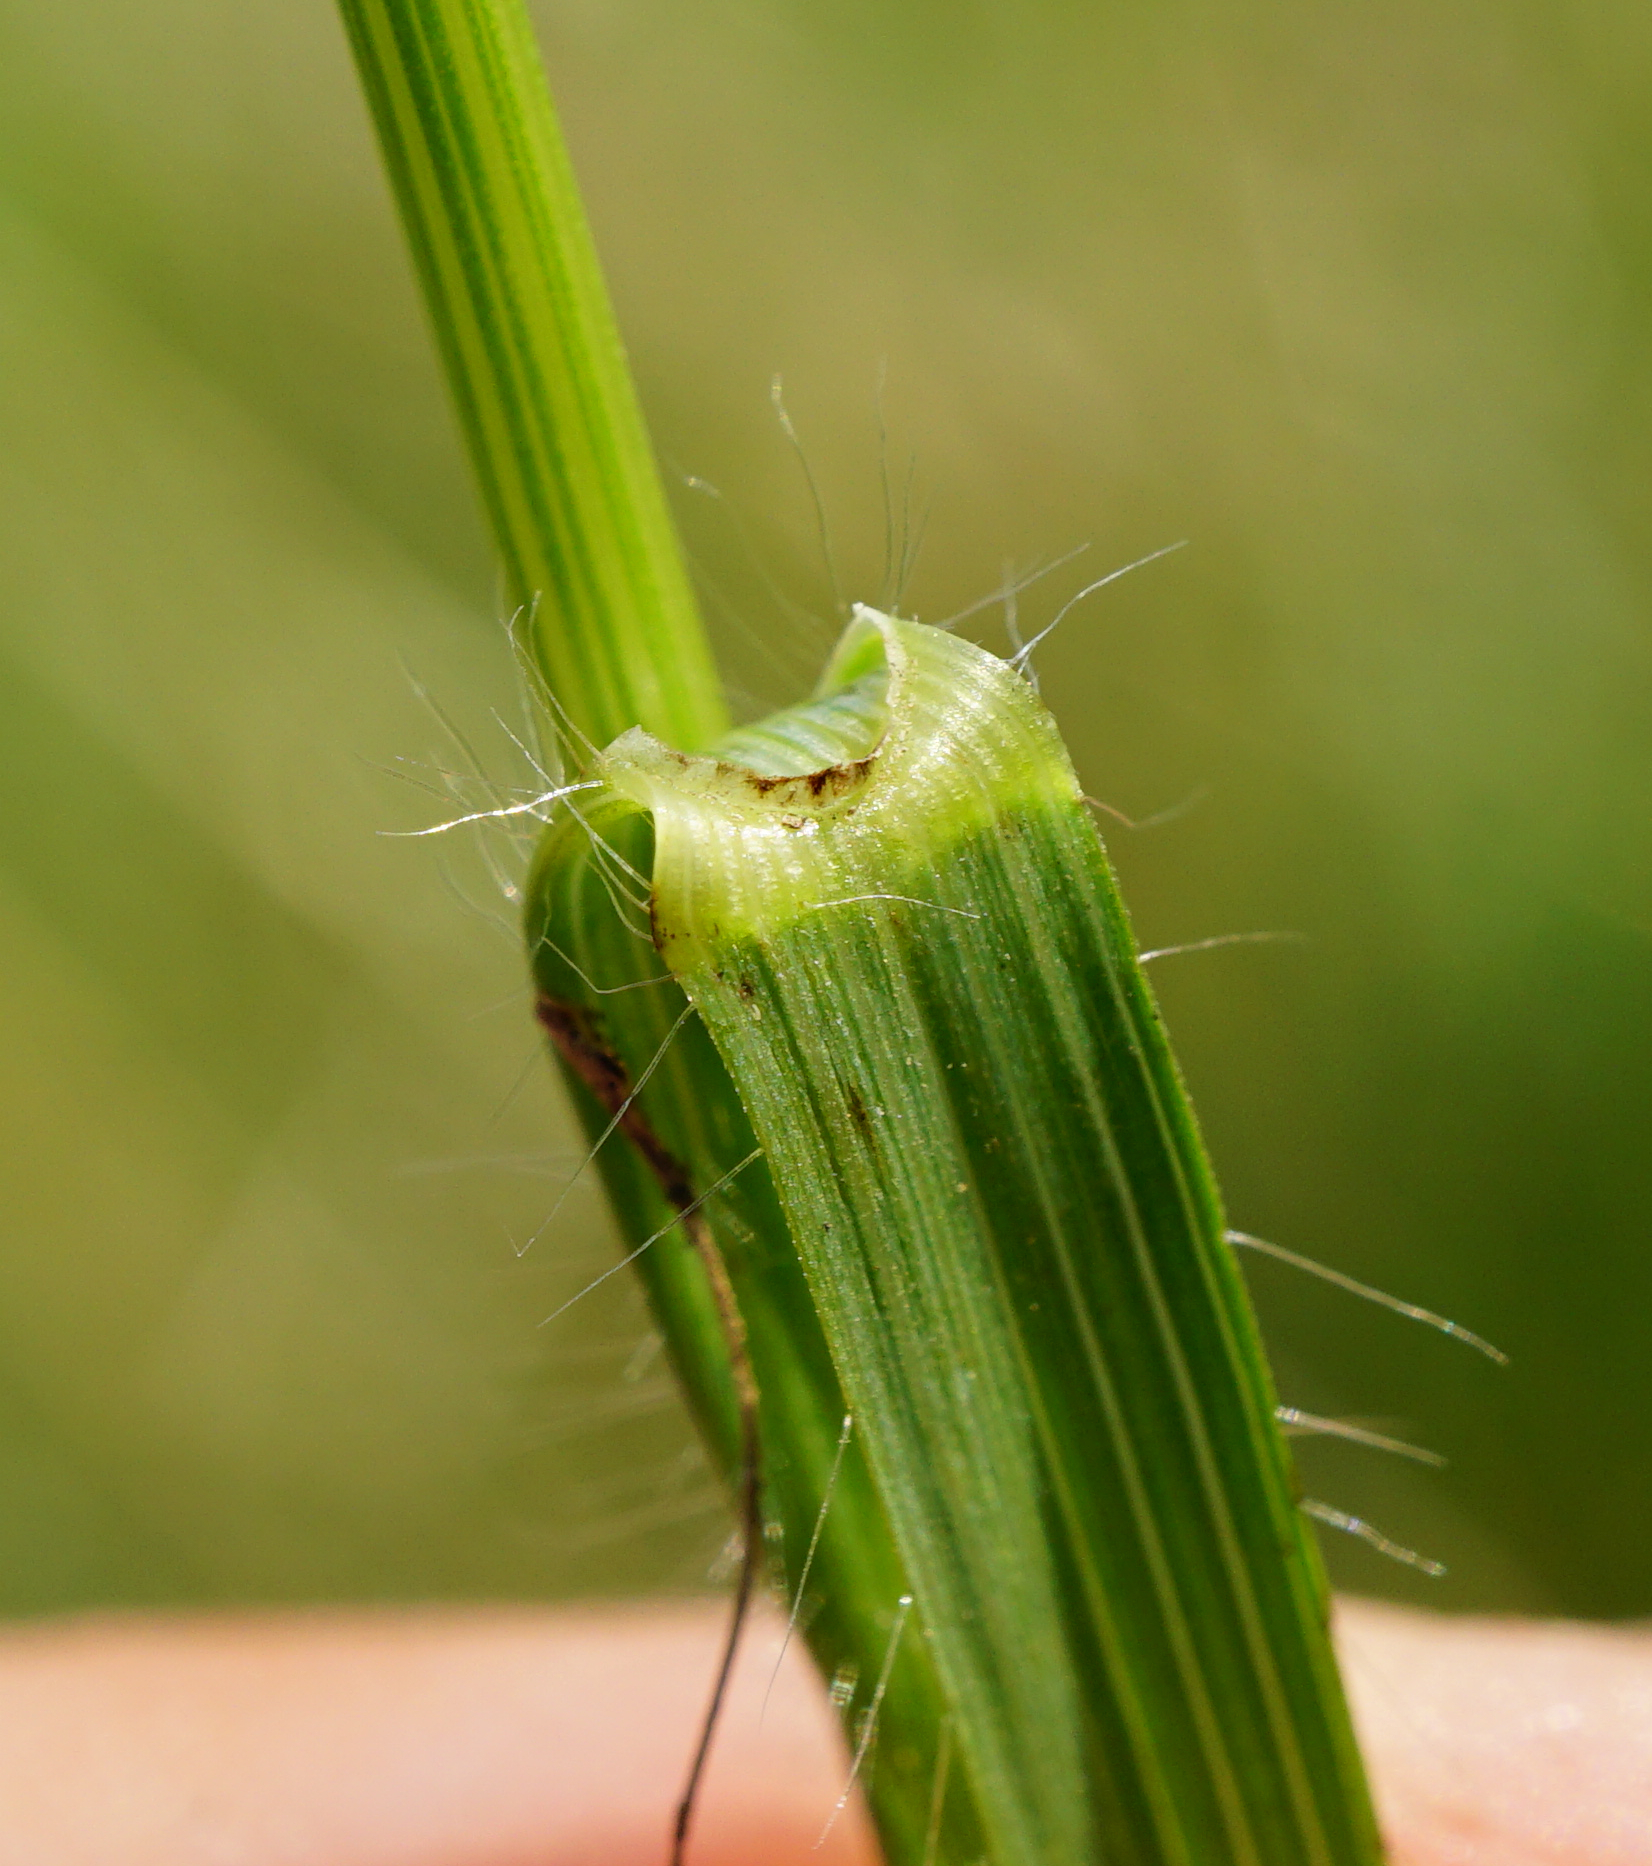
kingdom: Plantae
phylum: Tracheophyta
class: Liliopsida
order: Poales
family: Poaceae
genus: Bromus
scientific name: Bromus erectus
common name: Erect brome
